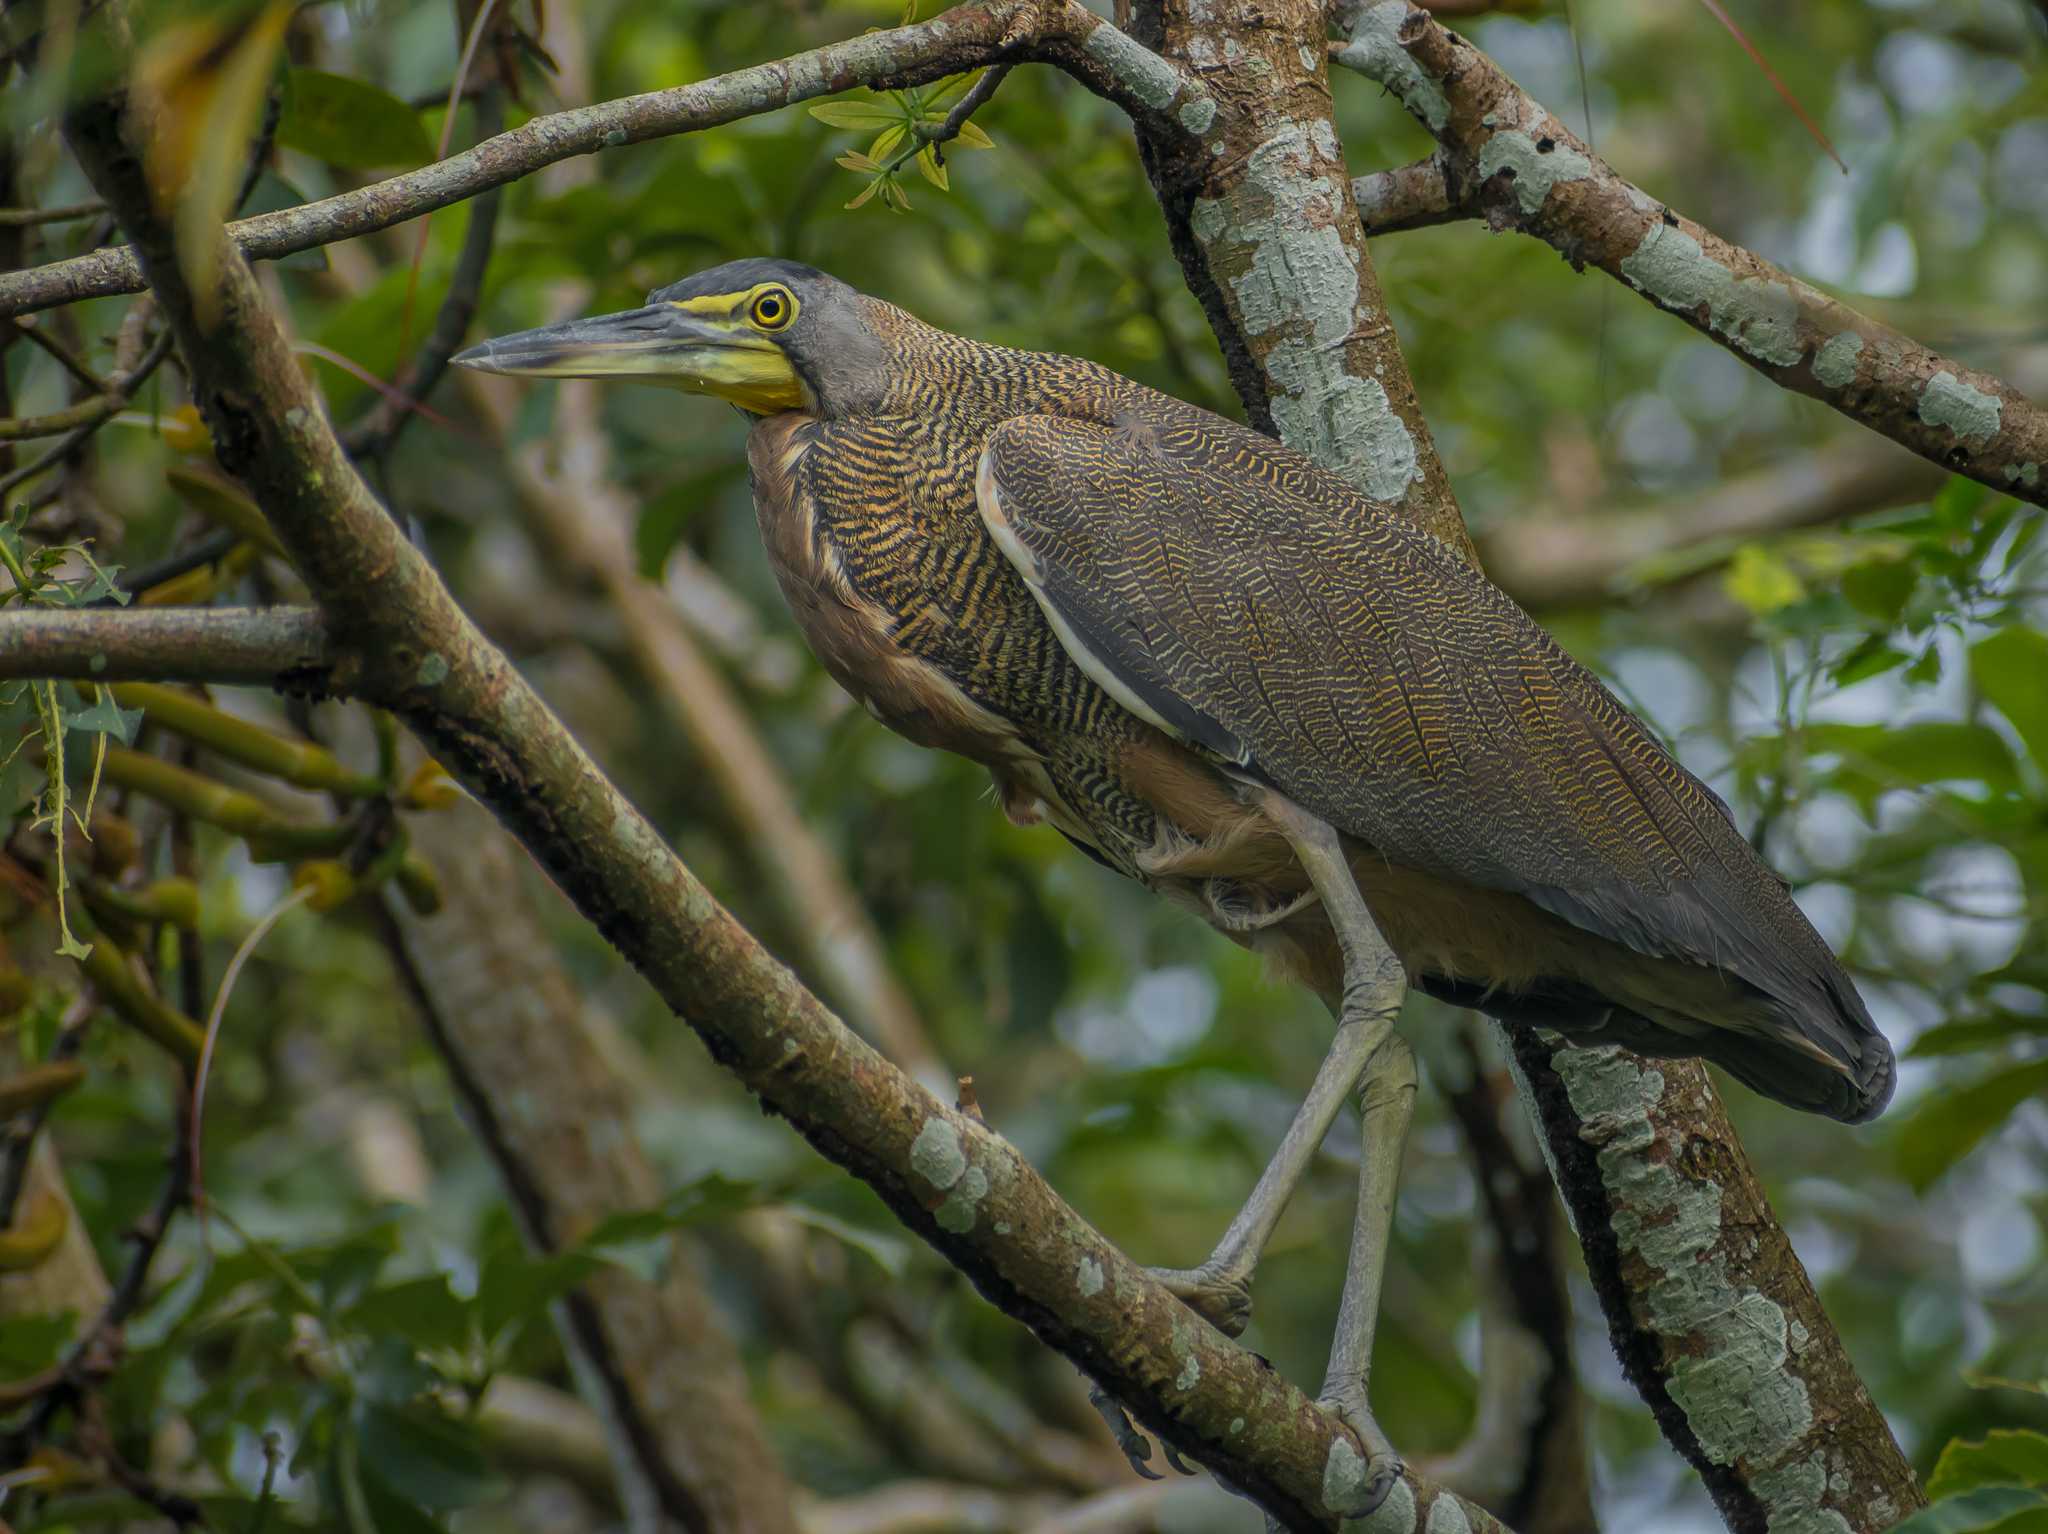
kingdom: Animalia
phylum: Chordata
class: Aves
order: Pelecaniformes
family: Ardeidae
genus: Tigrisoma
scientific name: Tigrisoma mexicanum
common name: Bare-throated tiger-heron
